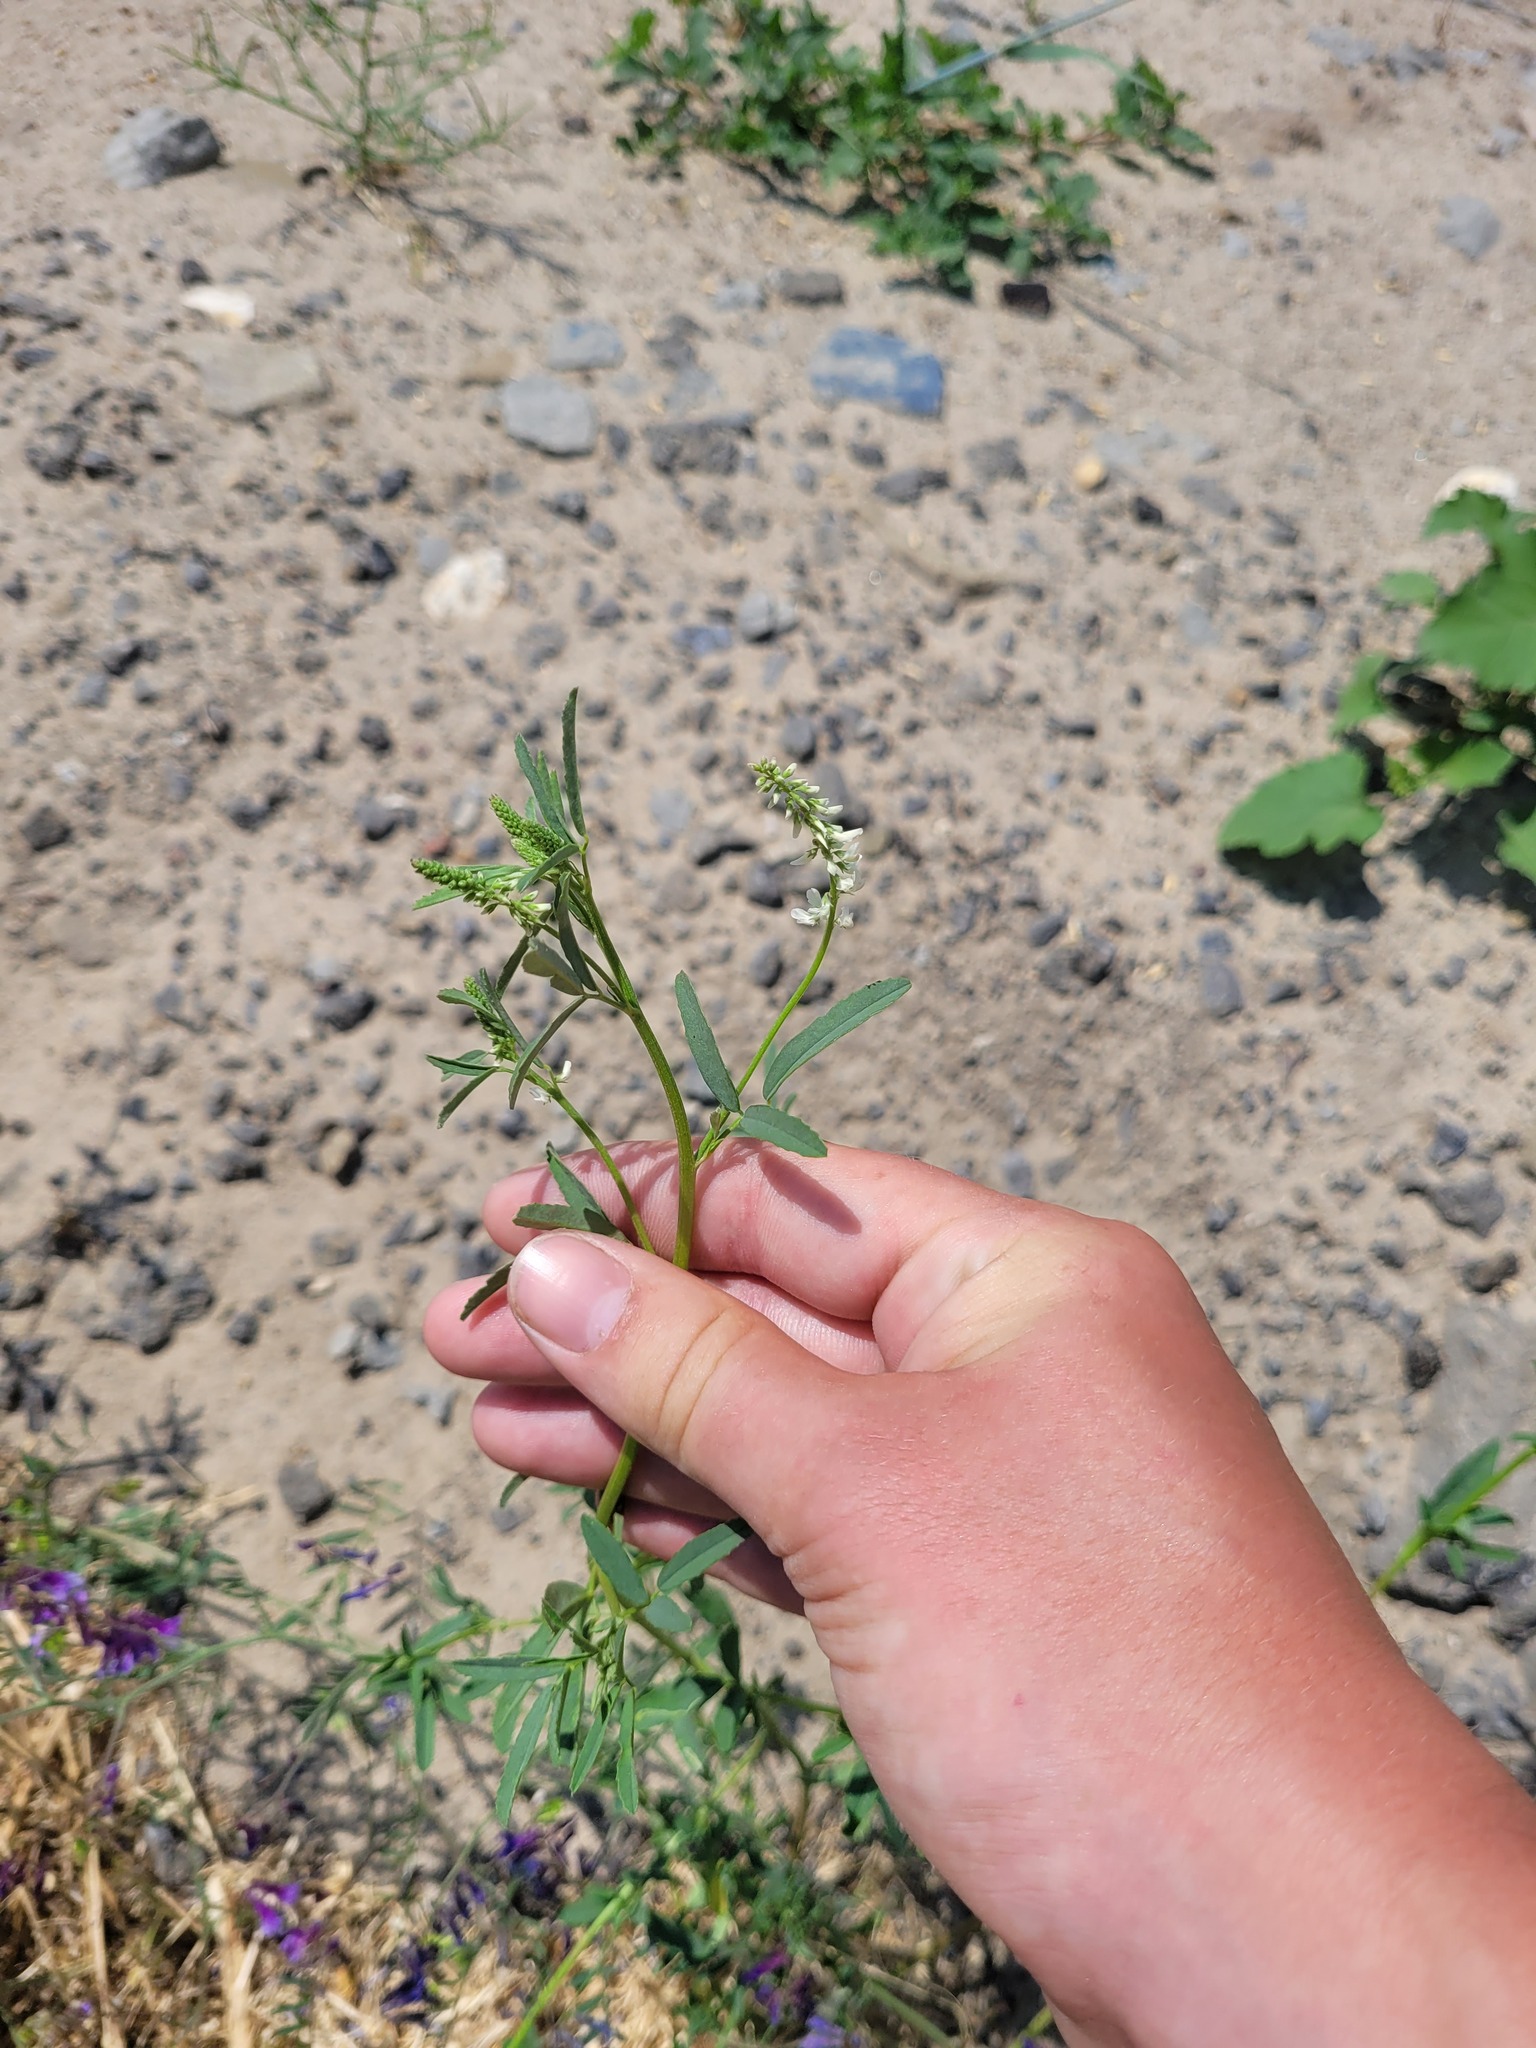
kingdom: Plantae
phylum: Tracheophyta
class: Magnoliopsida
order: Fabales
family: Fabaceae
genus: Melilotus
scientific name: Melilotus albus
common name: White melilot
